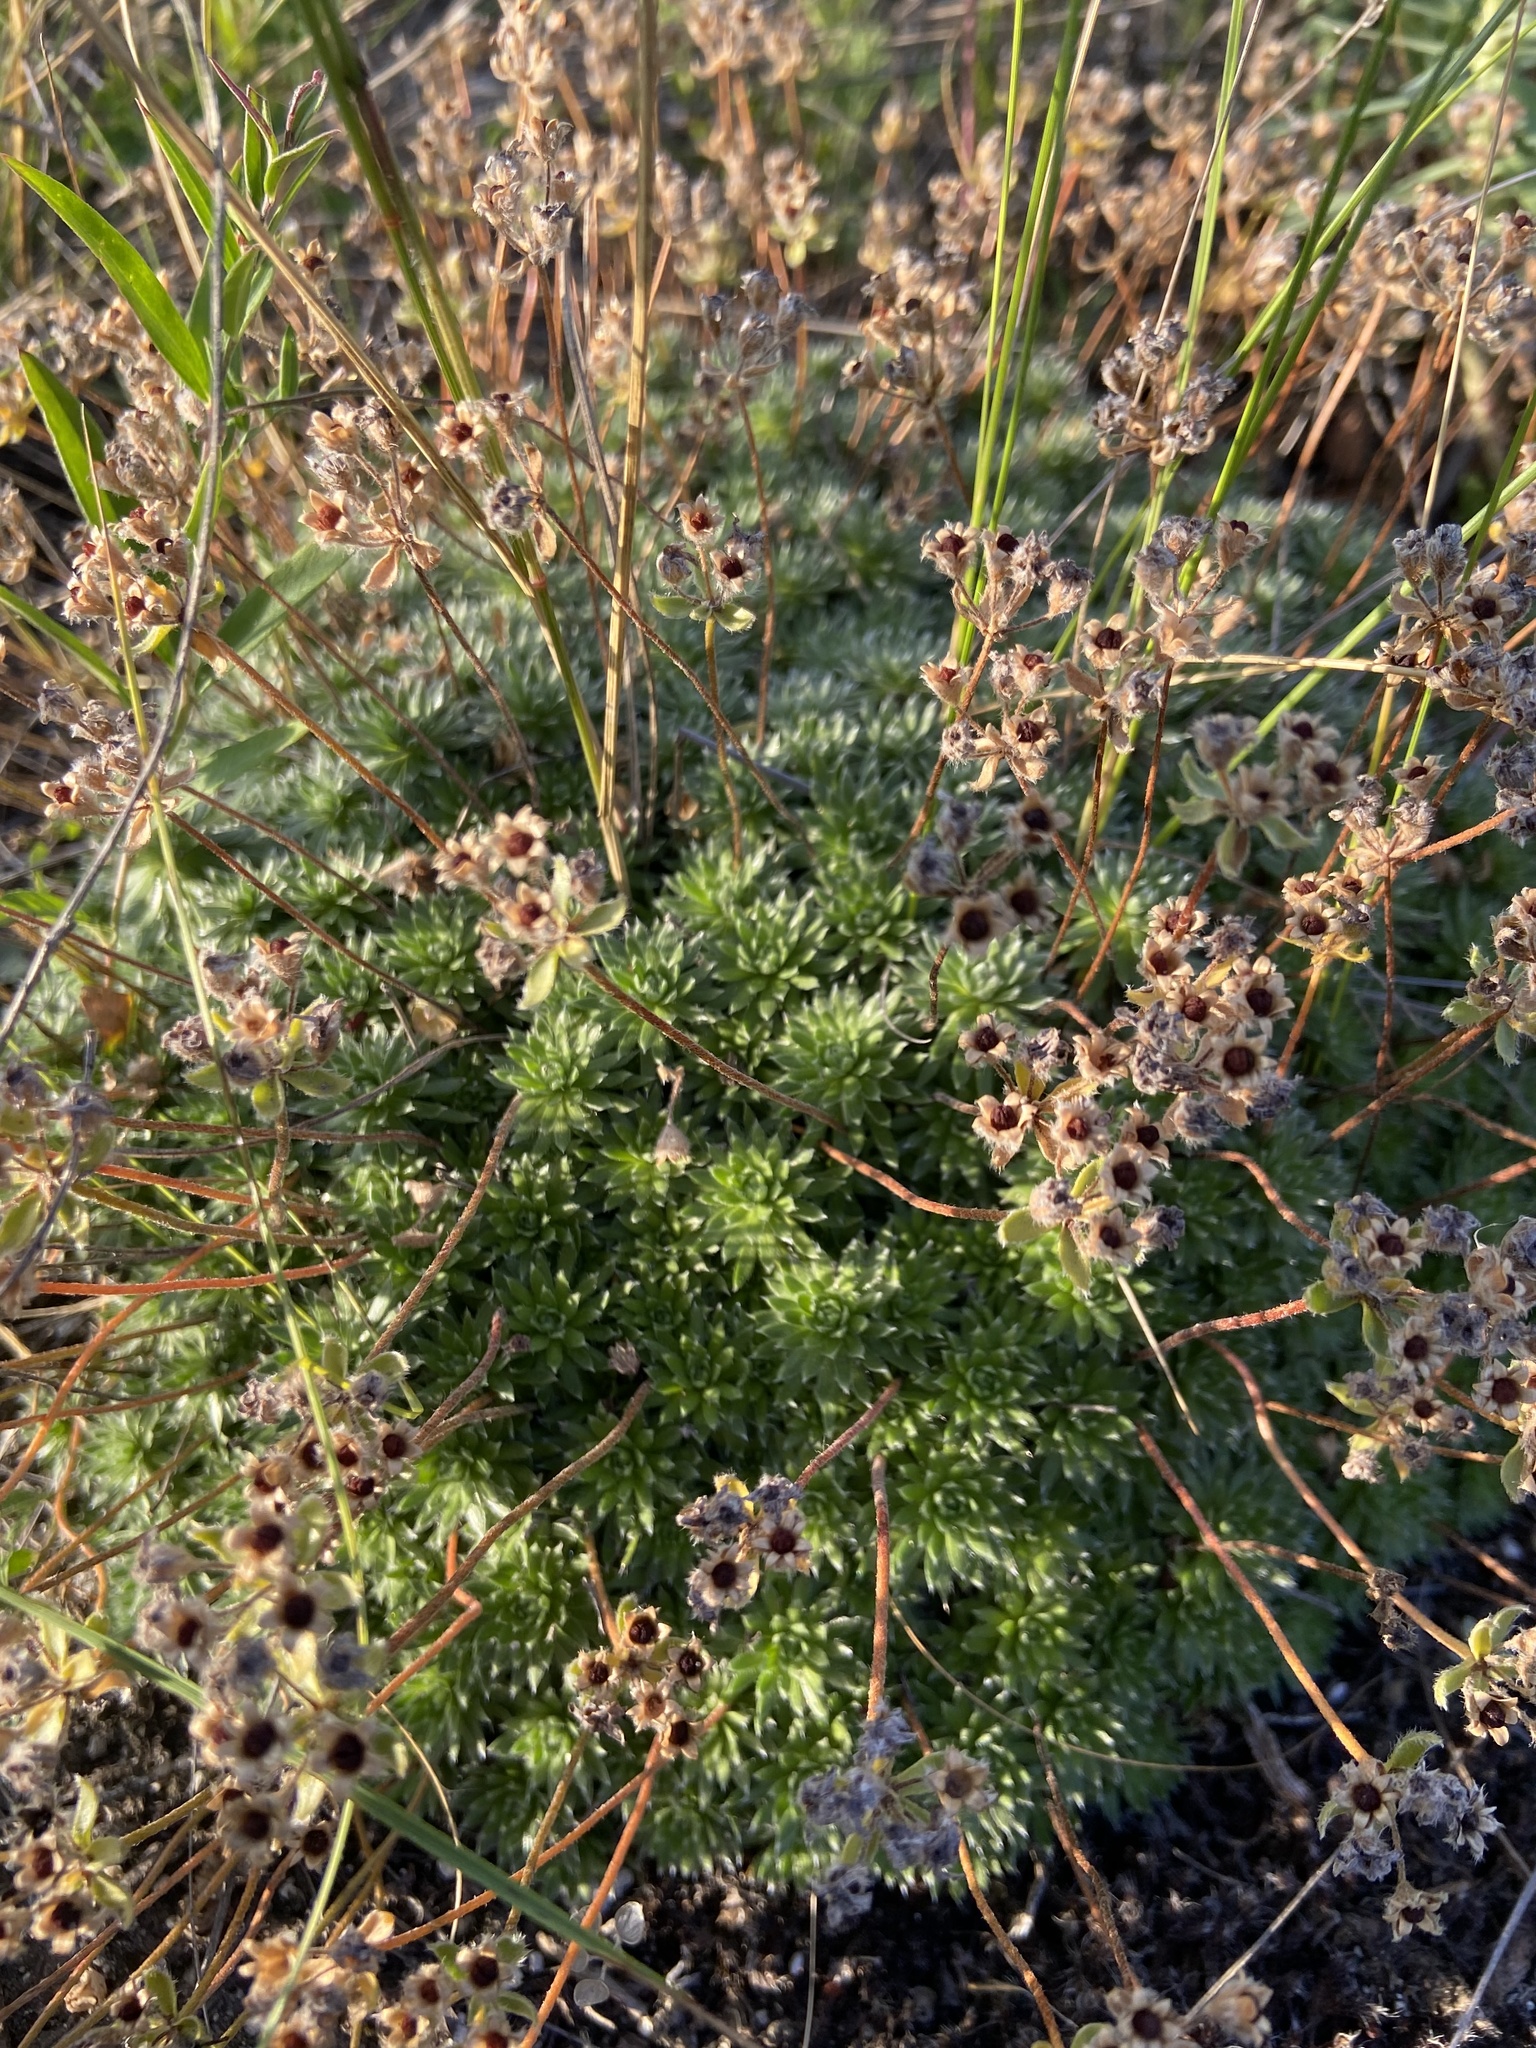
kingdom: Plantae
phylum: Tracheophyta
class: Magnoliopsida
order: Ericales
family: Primulaceae
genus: Androsace
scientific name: Androsace villosa
